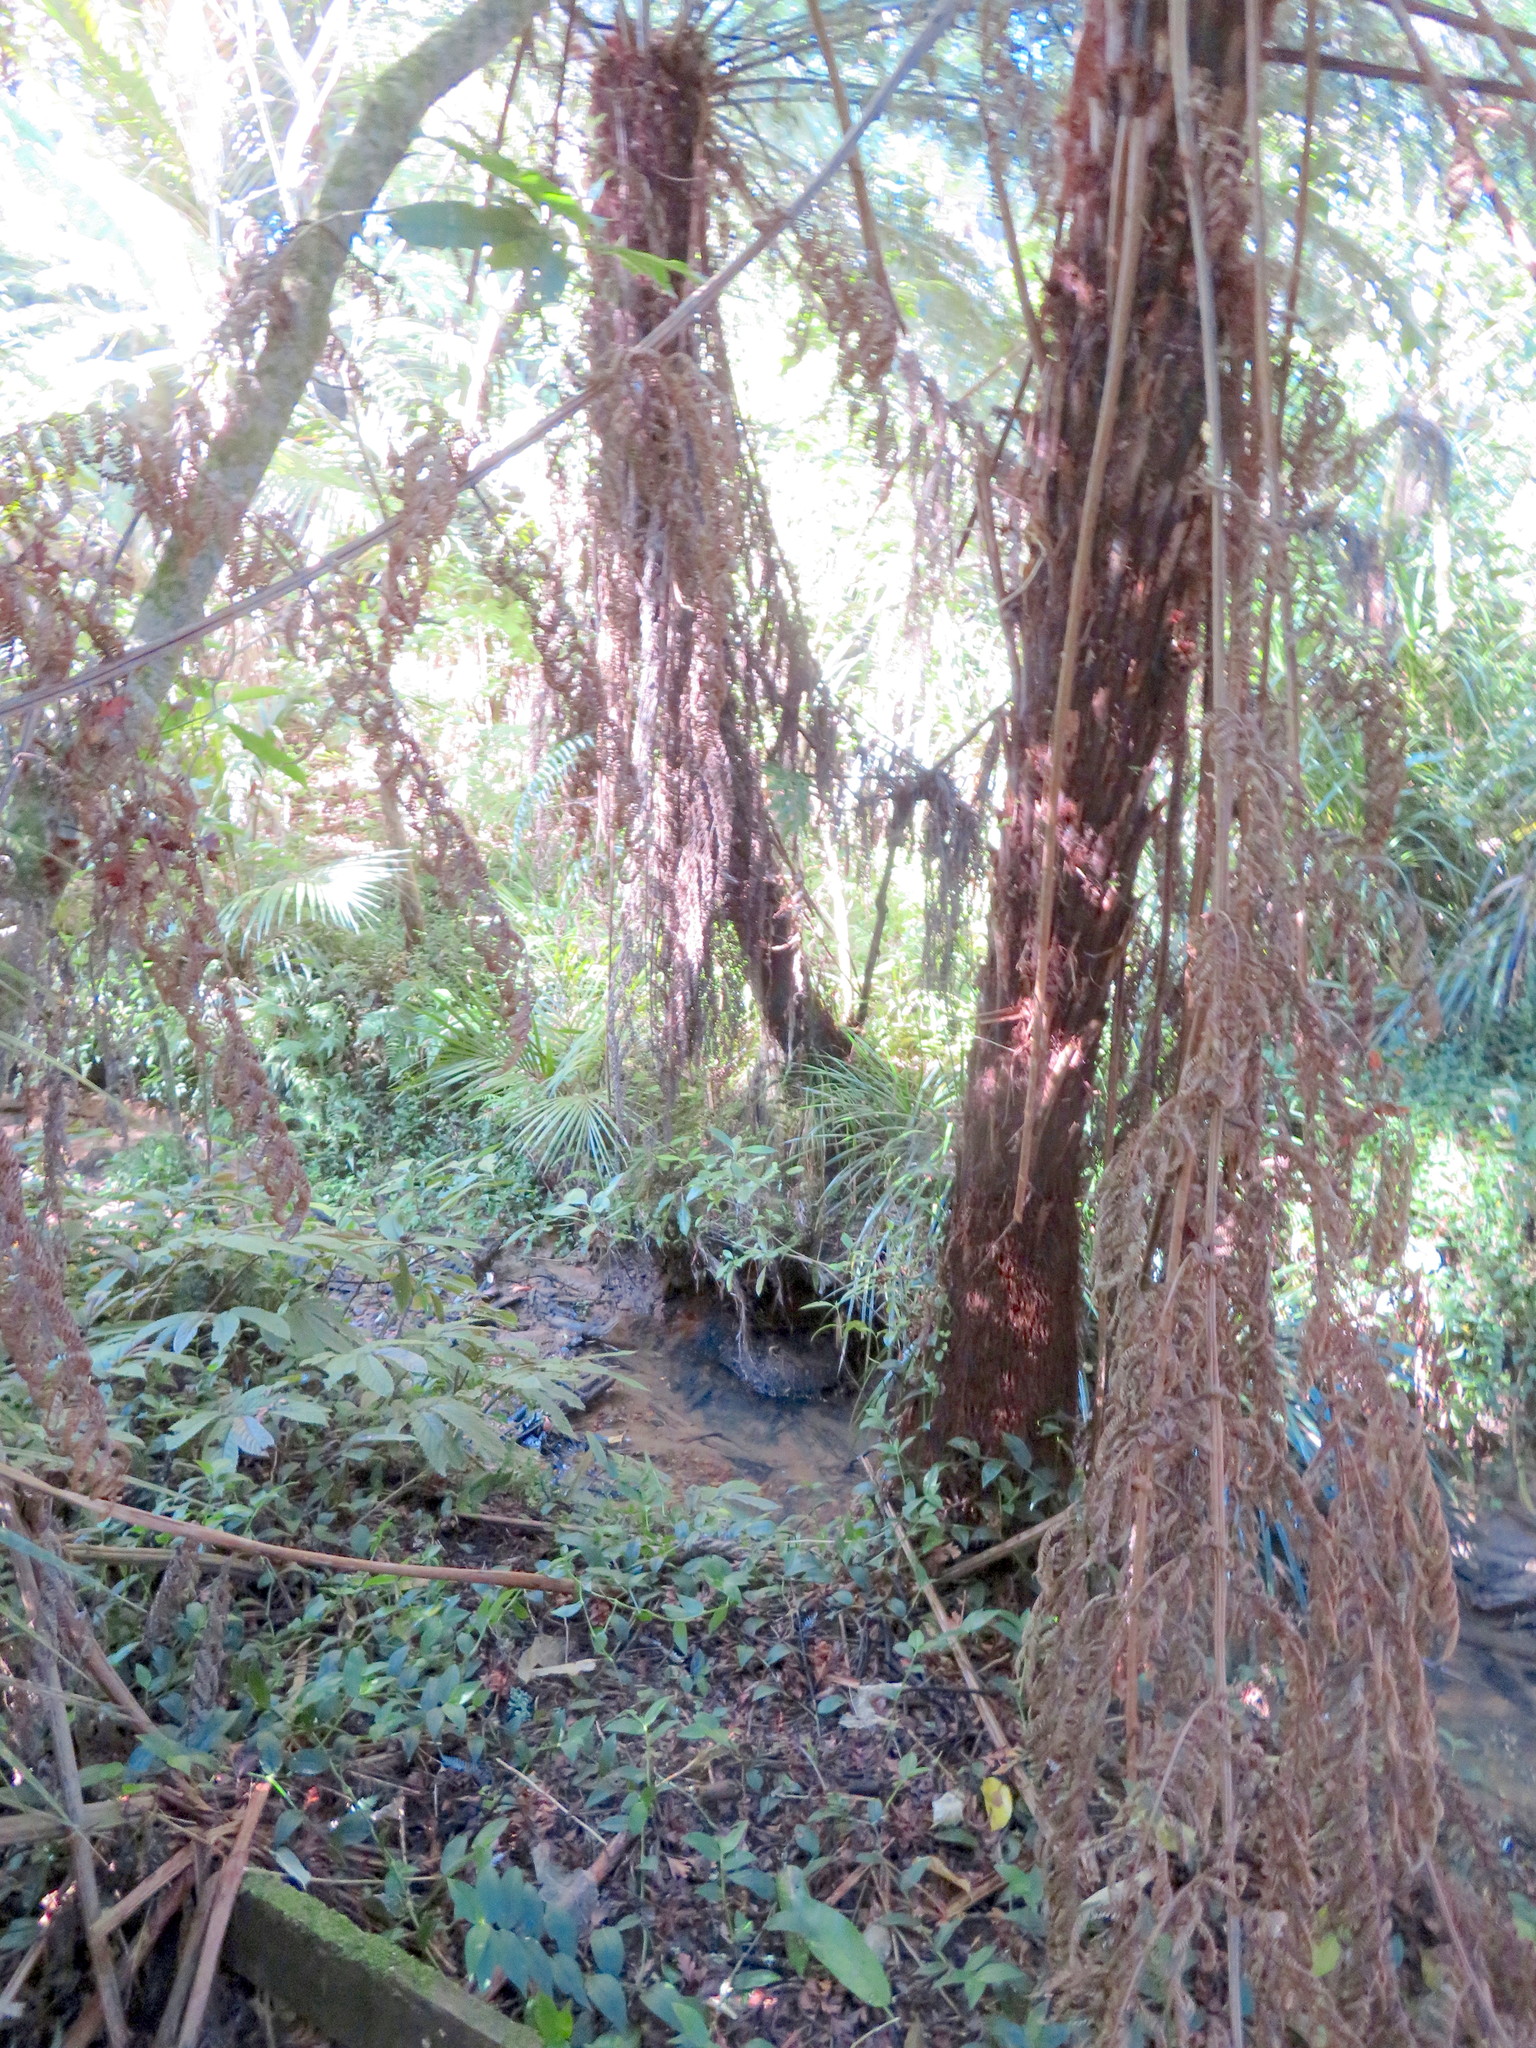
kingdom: Plantae
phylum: Tracheophyta
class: Liliopsida
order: Commelinales
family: Commelinaceae
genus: Tradescantia
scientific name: Tradescantia fluminensis
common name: Wandering-jew
